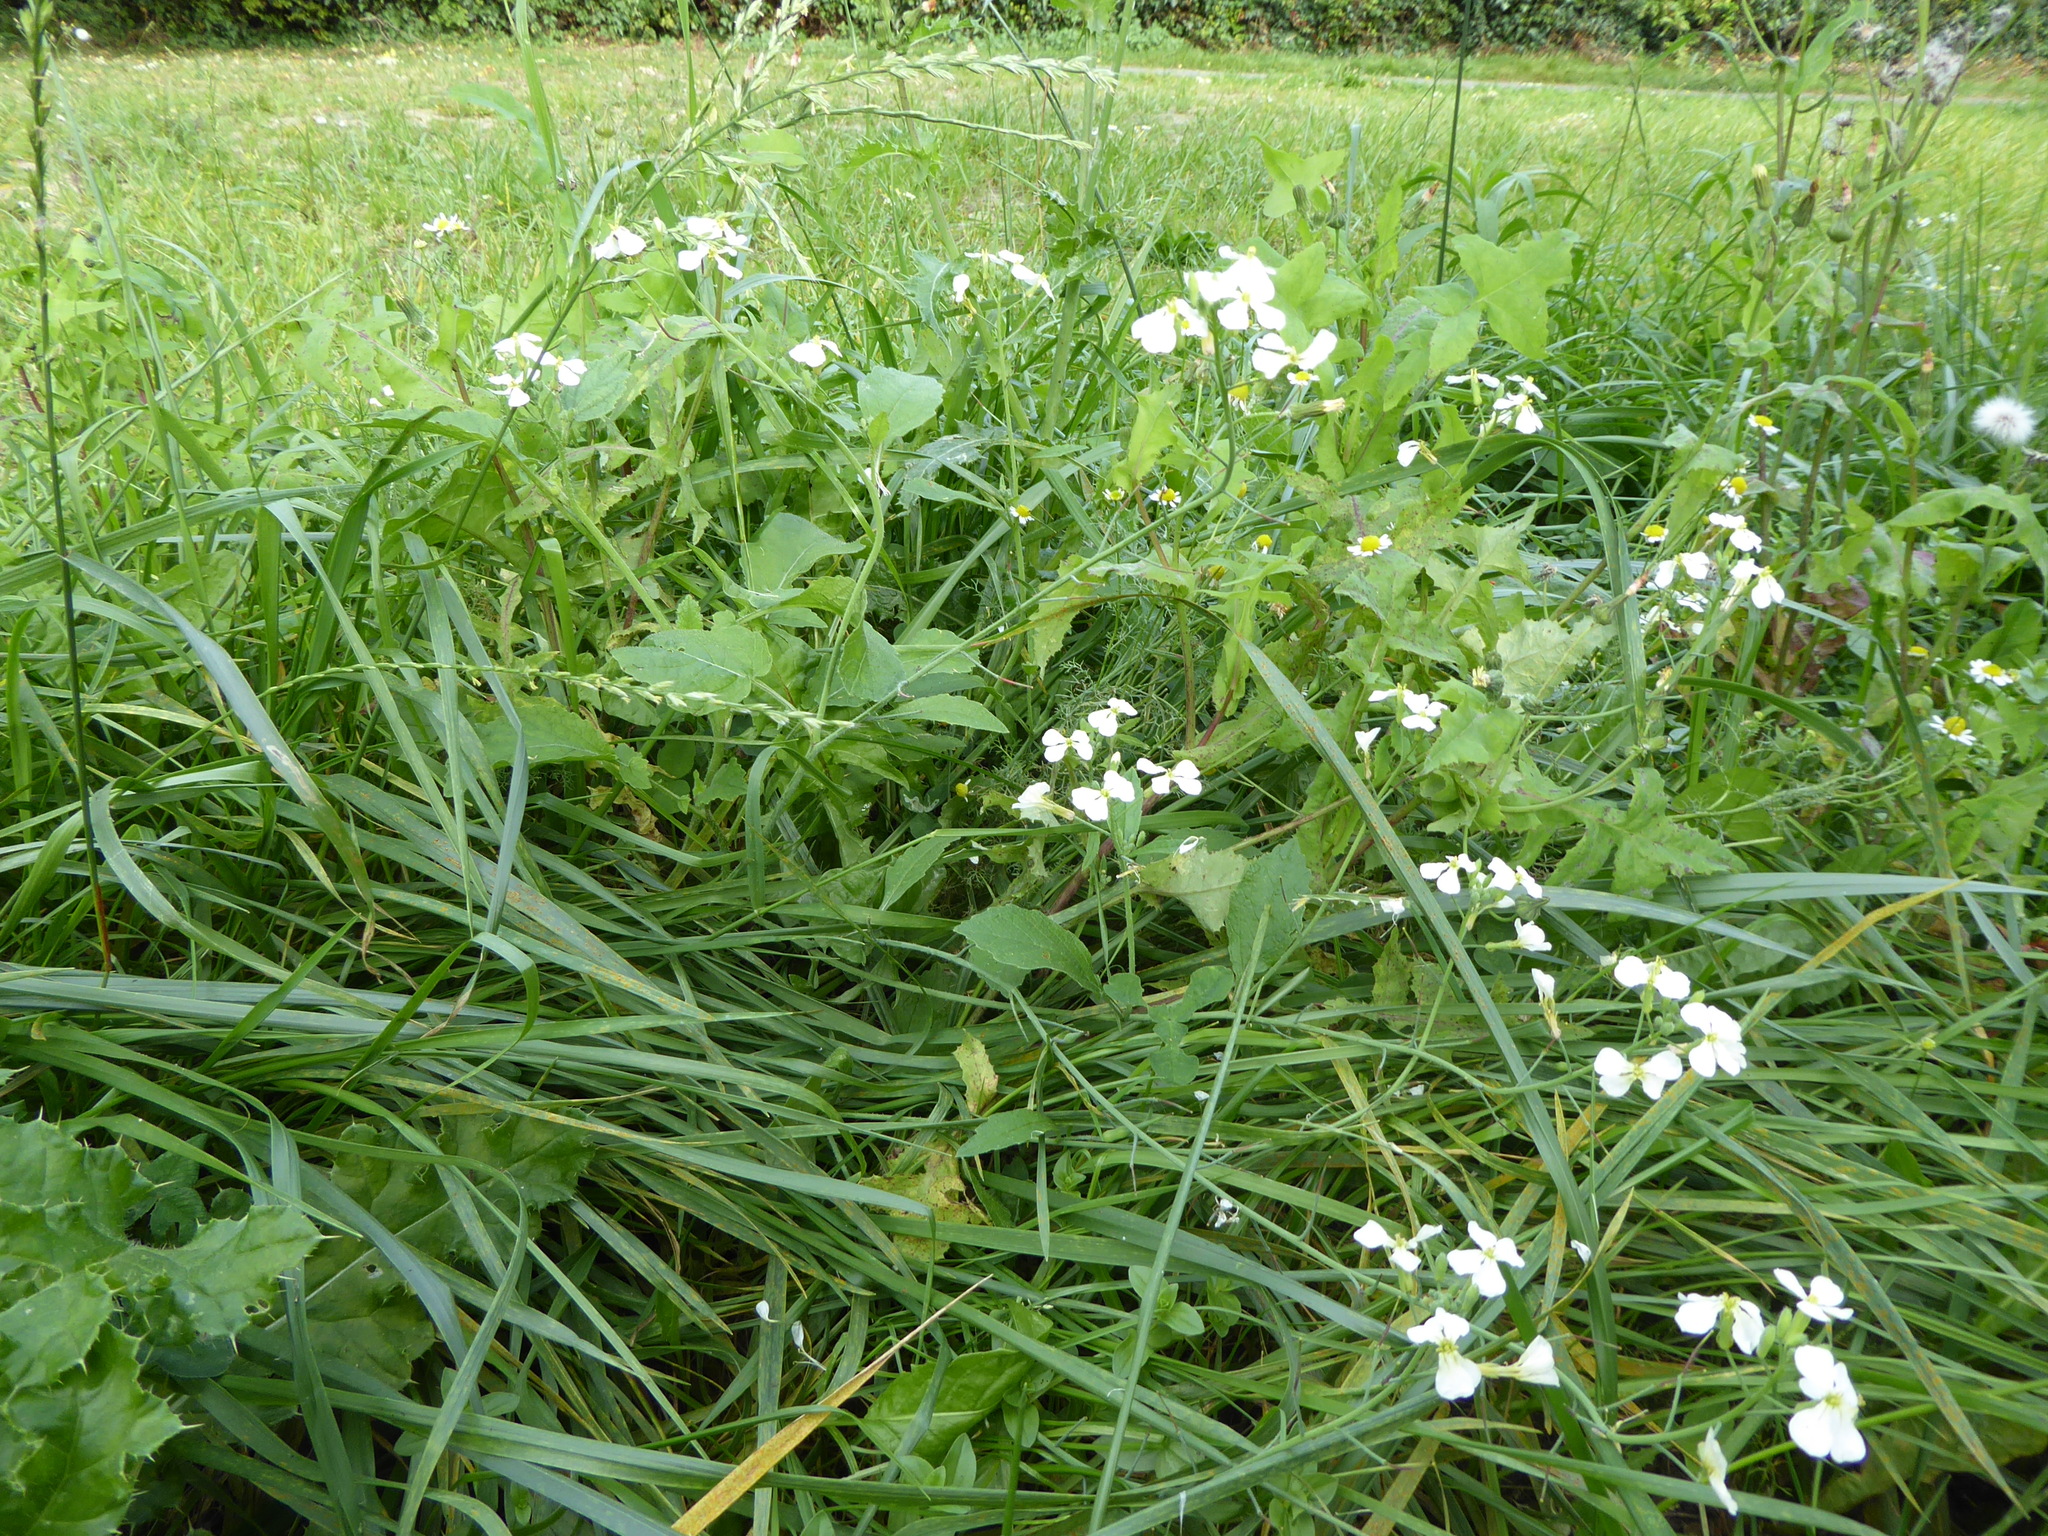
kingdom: Plantae
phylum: Tracheophyta
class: Magnoliopsida
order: Brassicales
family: Brassicaceae
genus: Raphanus
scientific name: Raphanus raphanistrum
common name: Wild radish
